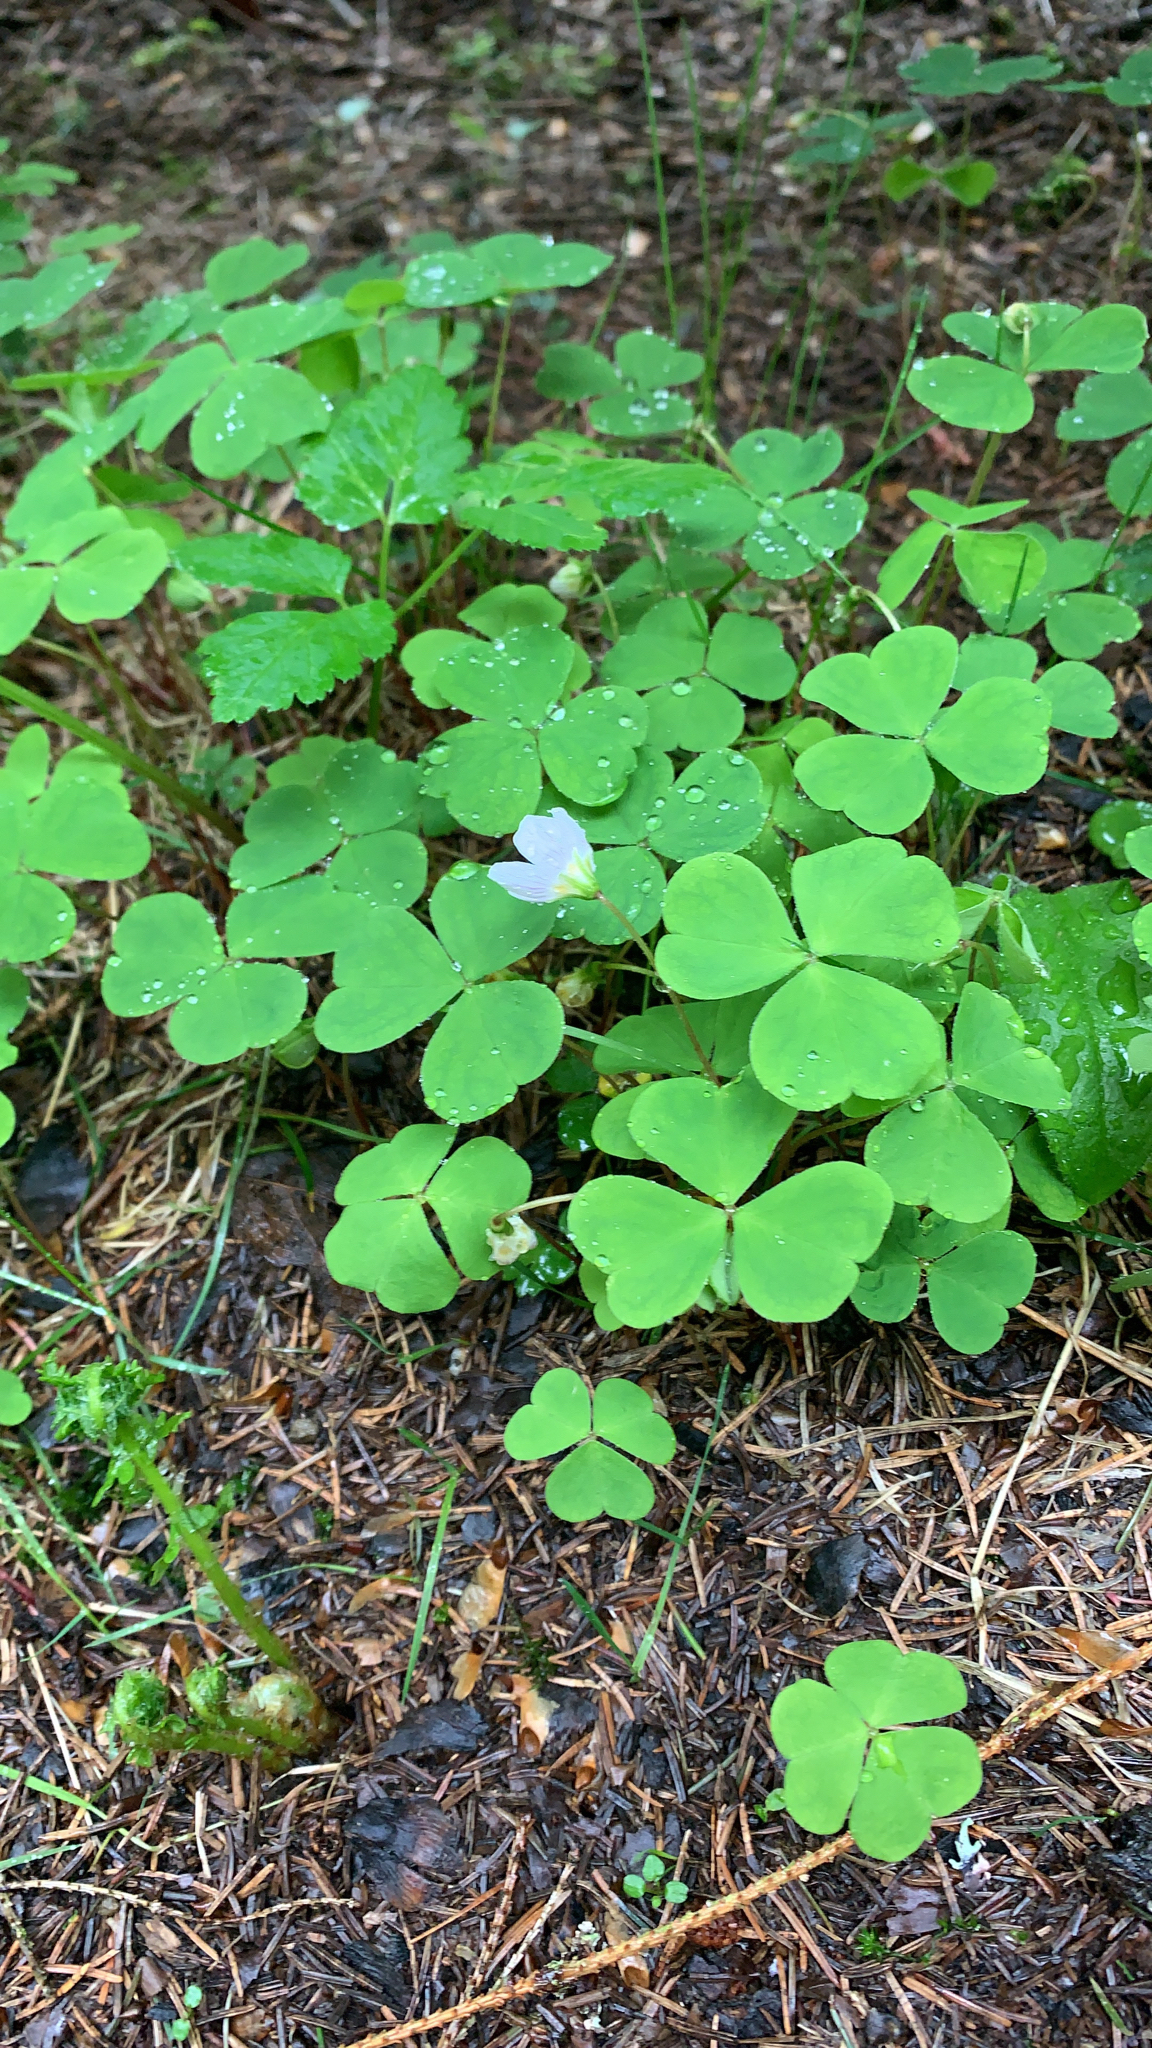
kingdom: Plantae
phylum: Tracheophyta
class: Magnoliopsida
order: Oxalidales
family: Oxalidaceae
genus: Oxalis
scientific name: Oxalis acetosella
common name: Wood-sorrel
